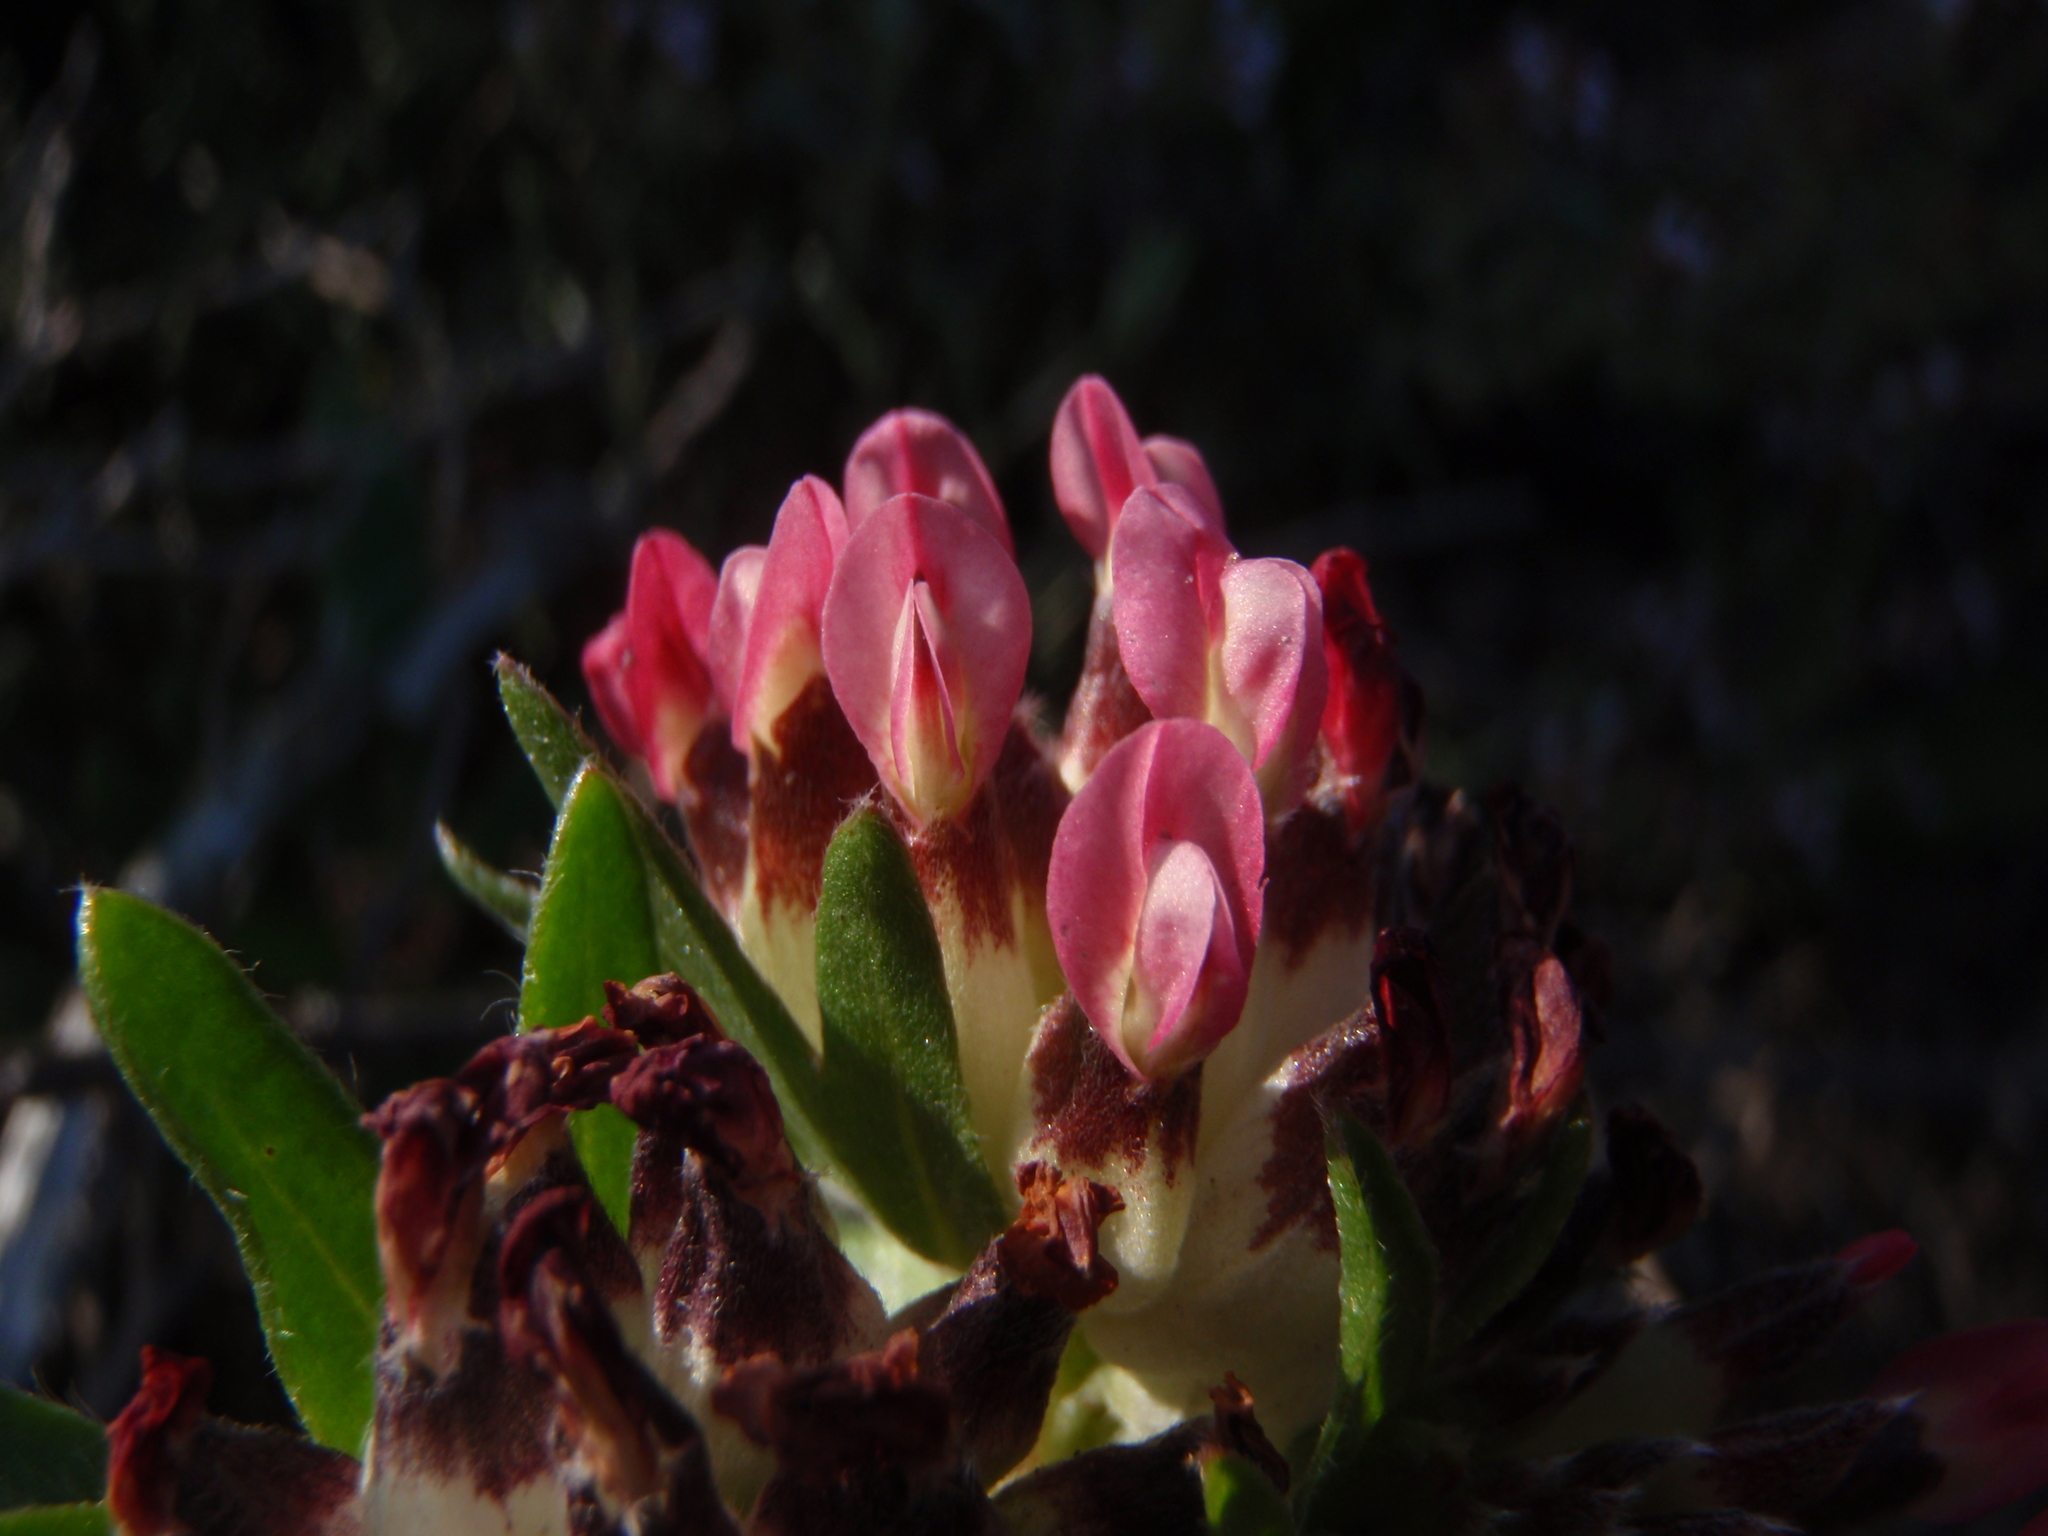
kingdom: Plantae
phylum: Tracheophyta
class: Magnoliopsida
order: Fabales
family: Fabaceae
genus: Anthyllis
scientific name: Anthyllis vulneraria
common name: Kidney vetch
